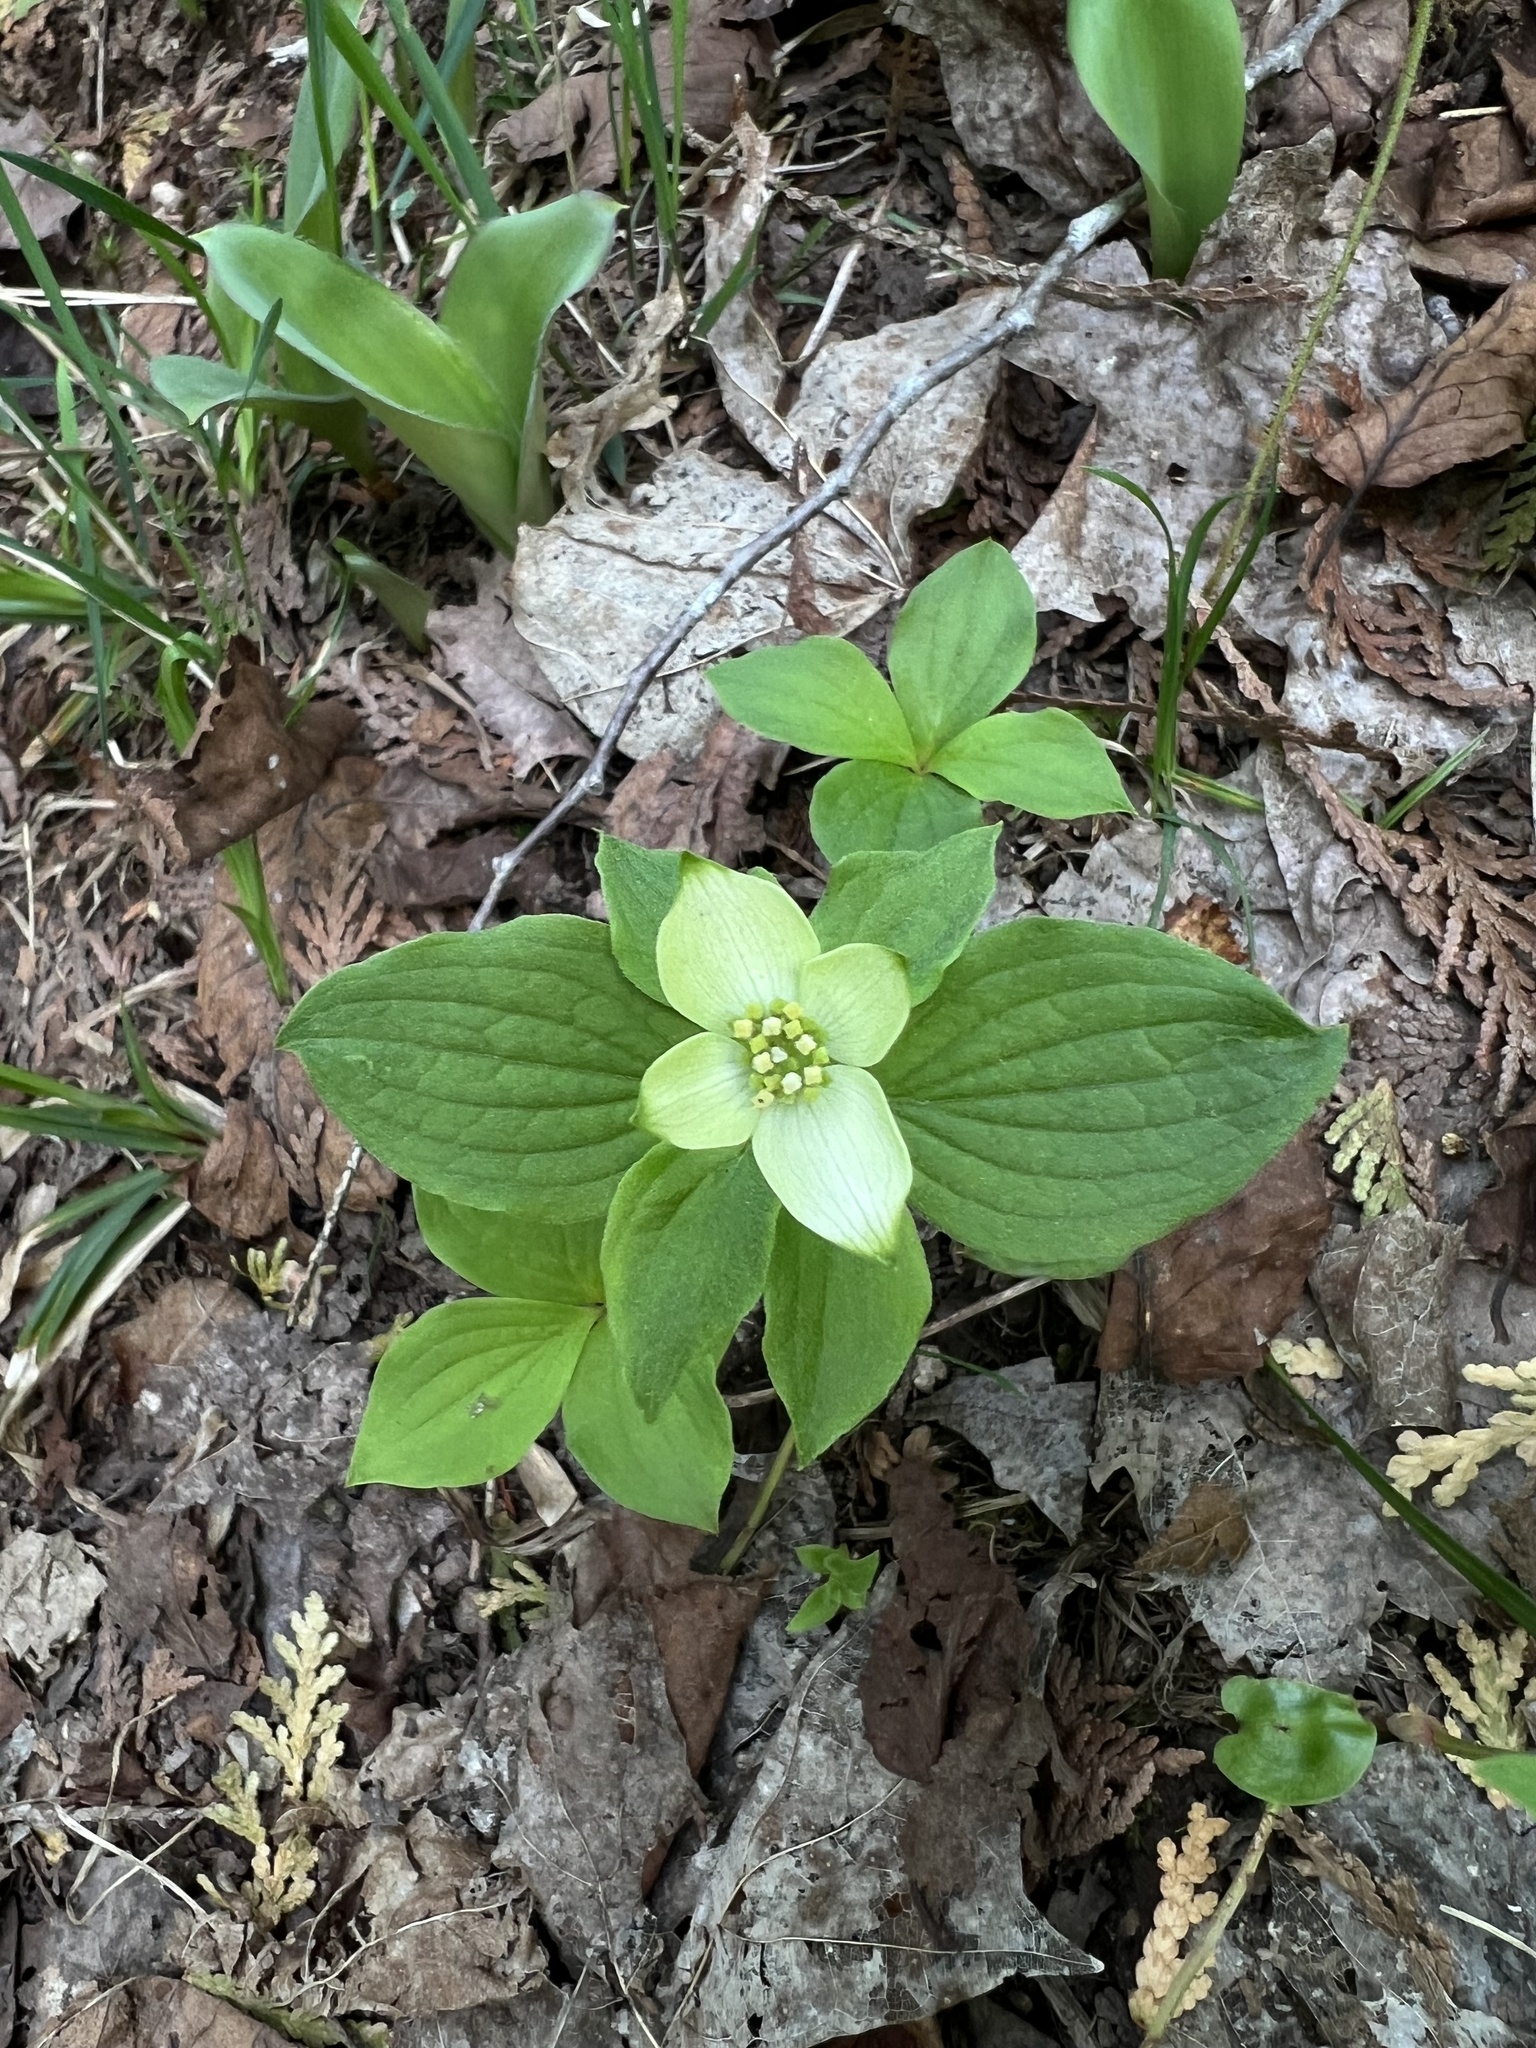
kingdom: Plantae
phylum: Tracheophyta
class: Magnoliopsida
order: Cornales
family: Cornaceae
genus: Cornus
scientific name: Cornus canadensis
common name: Creeping dogwood
